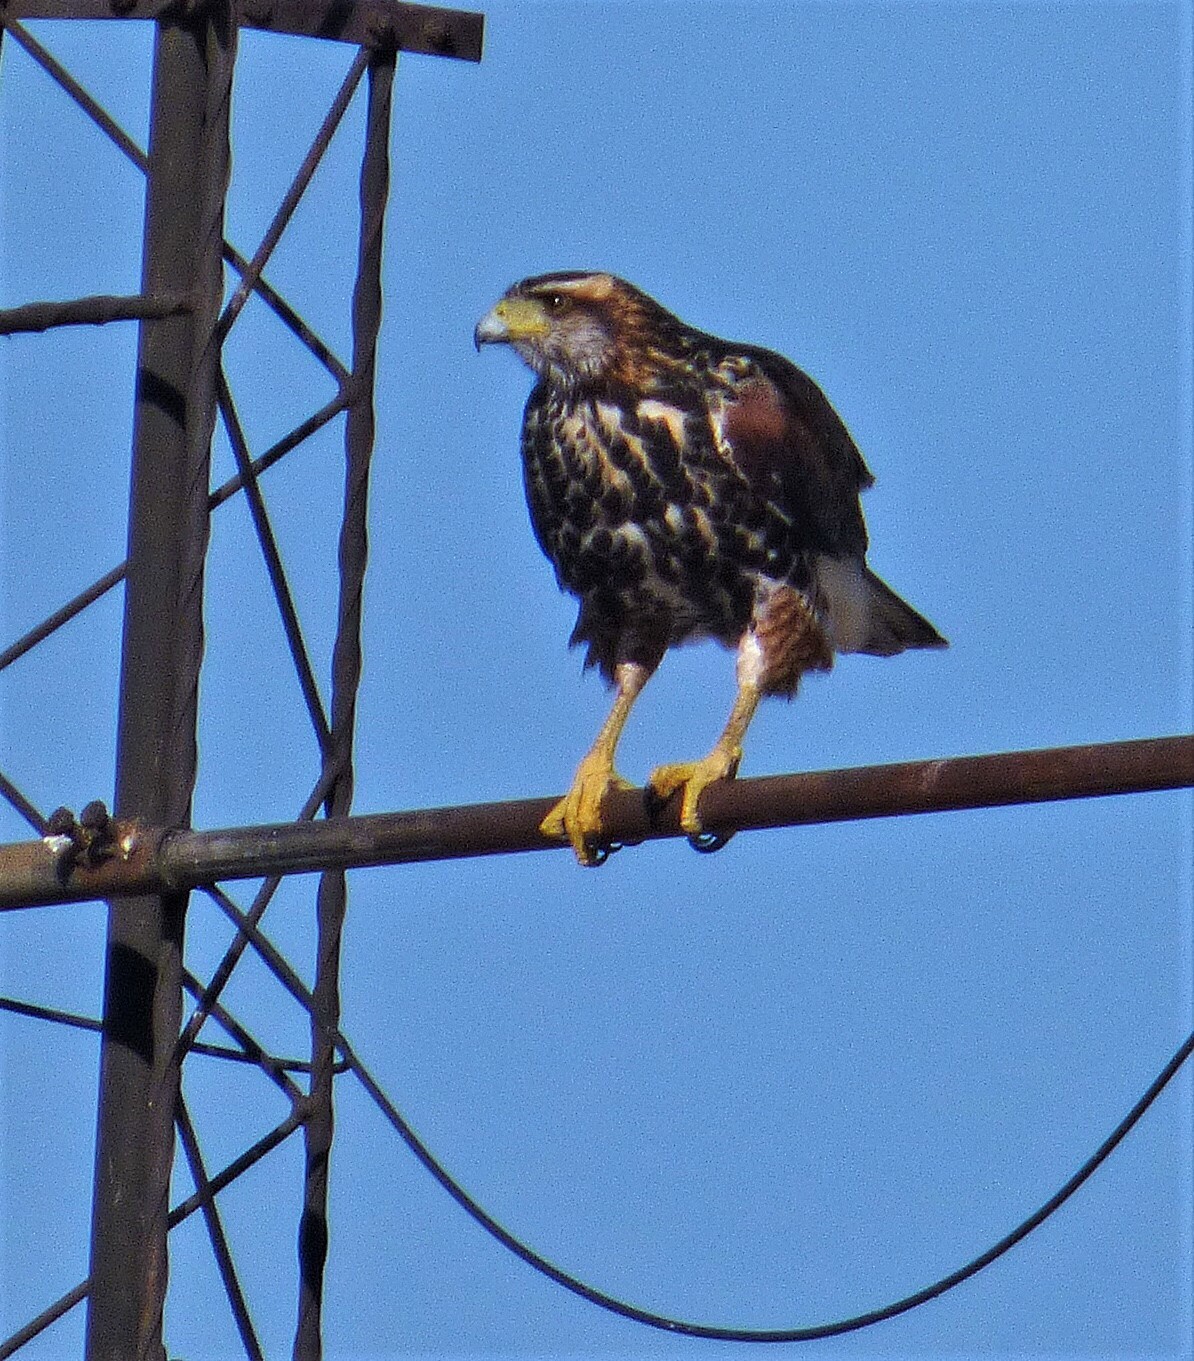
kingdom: Animalia
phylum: Chordata
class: Aves
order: Accipitriformes
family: Accipitridae
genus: Parabuteo
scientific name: Parabuteo unicinctus
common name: Harris's hawk
